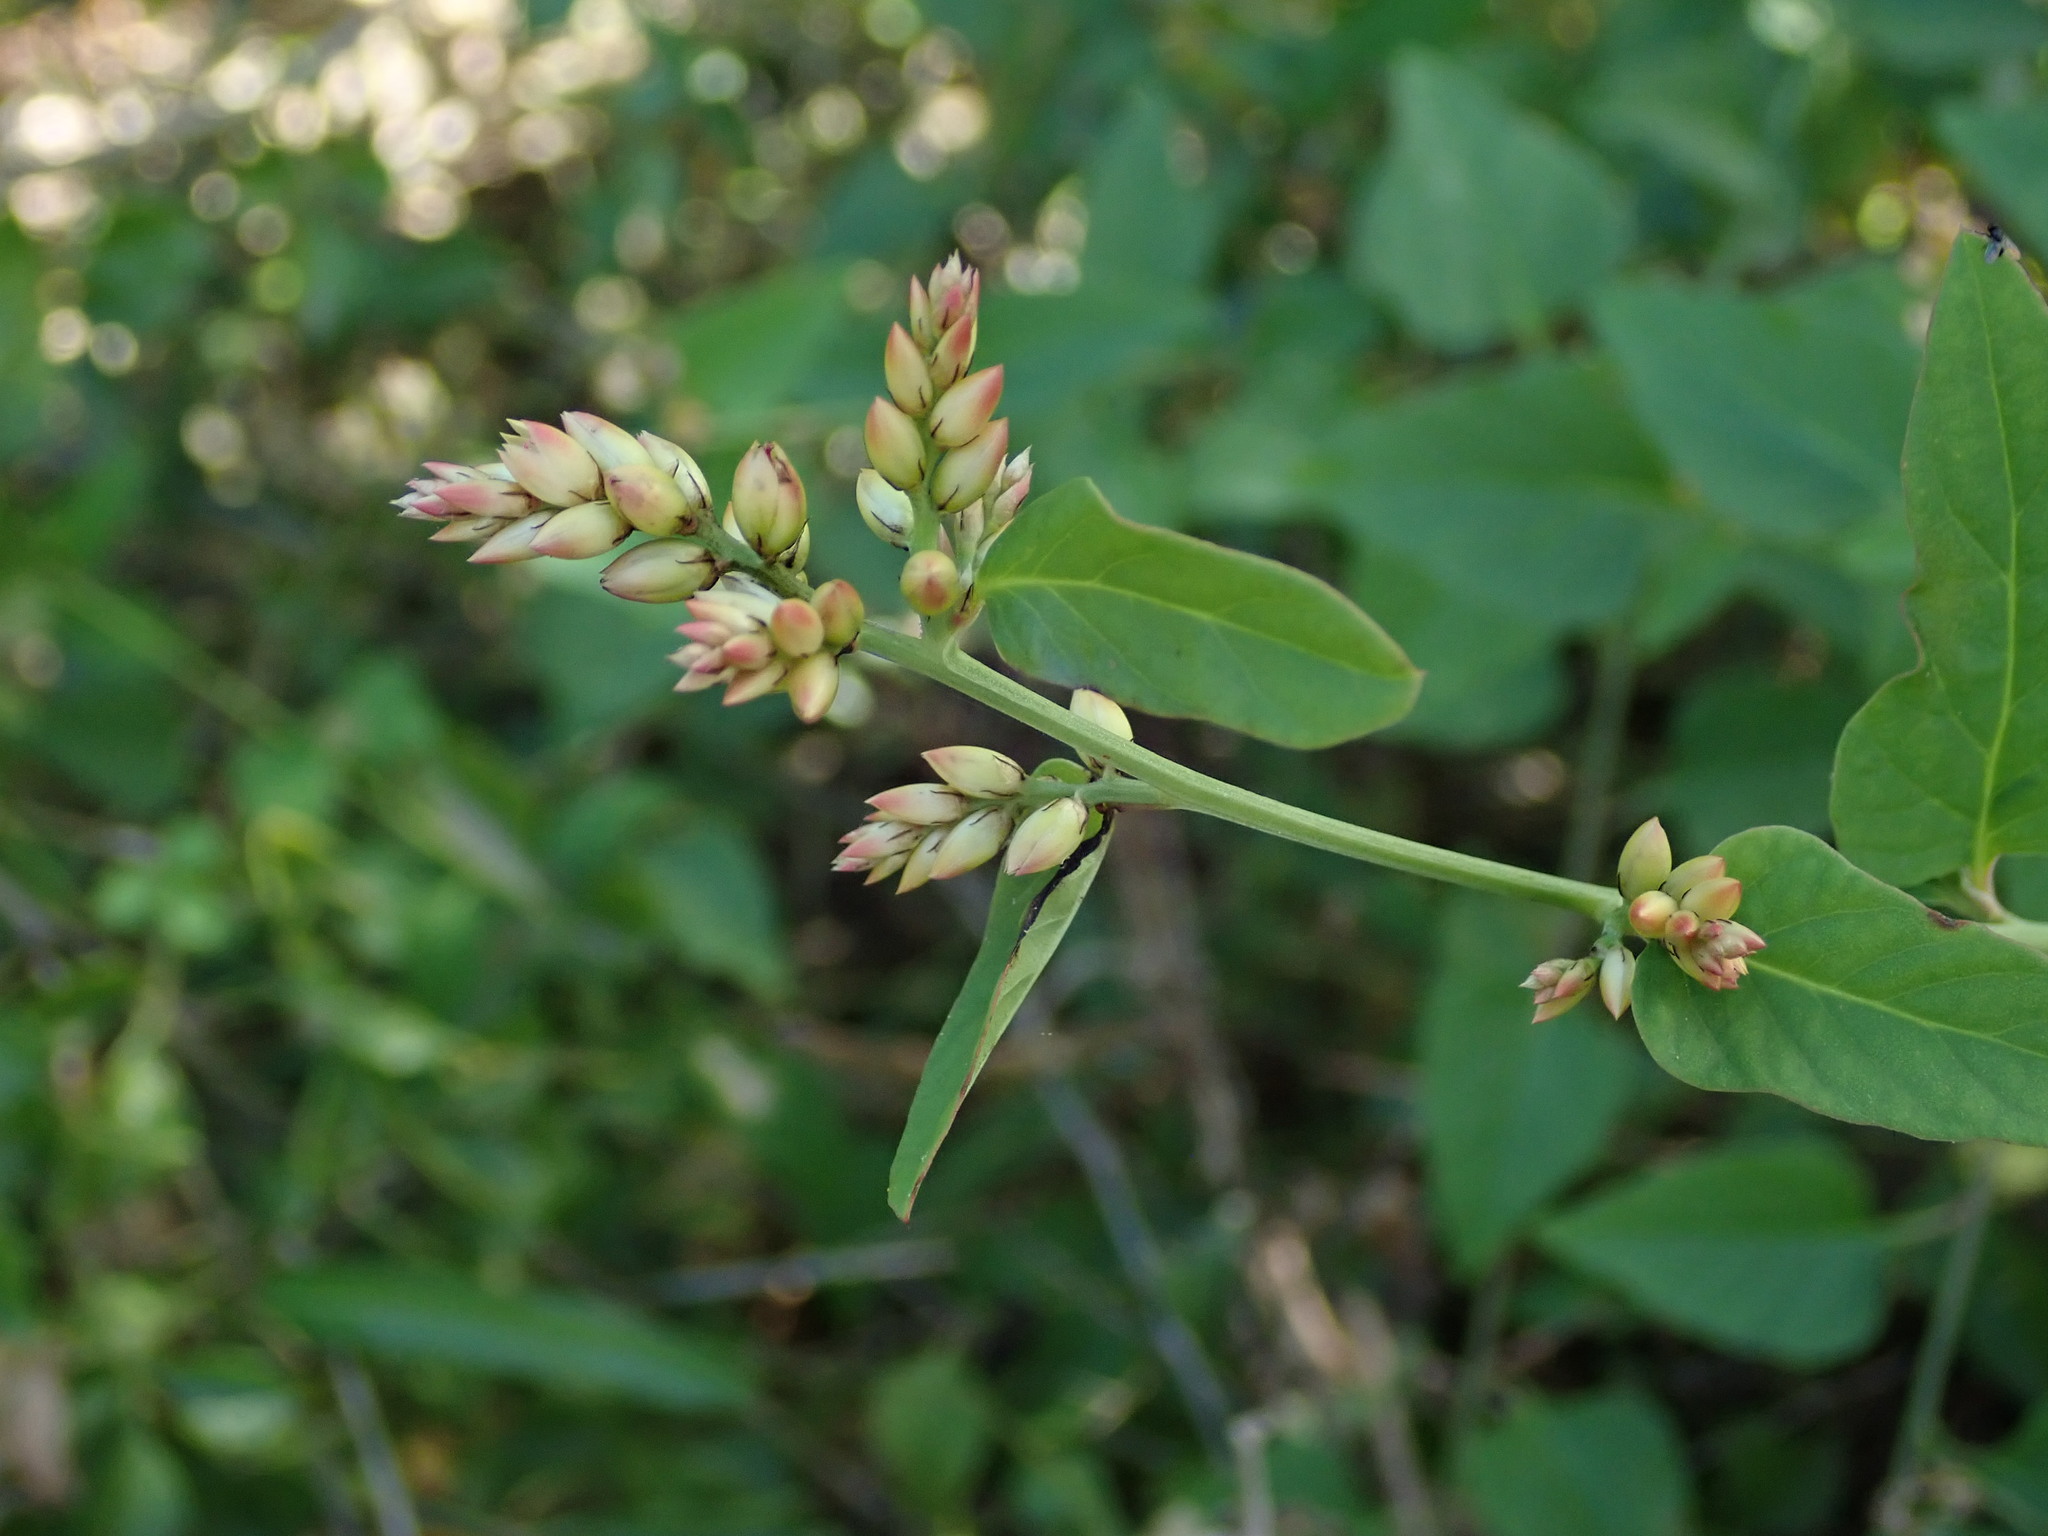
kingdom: Plantae
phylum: Tracheophyta
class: Magnoliopsida
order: Caryophyllales
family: Amaranthaceae
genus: Celosia
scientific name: Celosia nitida
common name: West indian cock's comb
